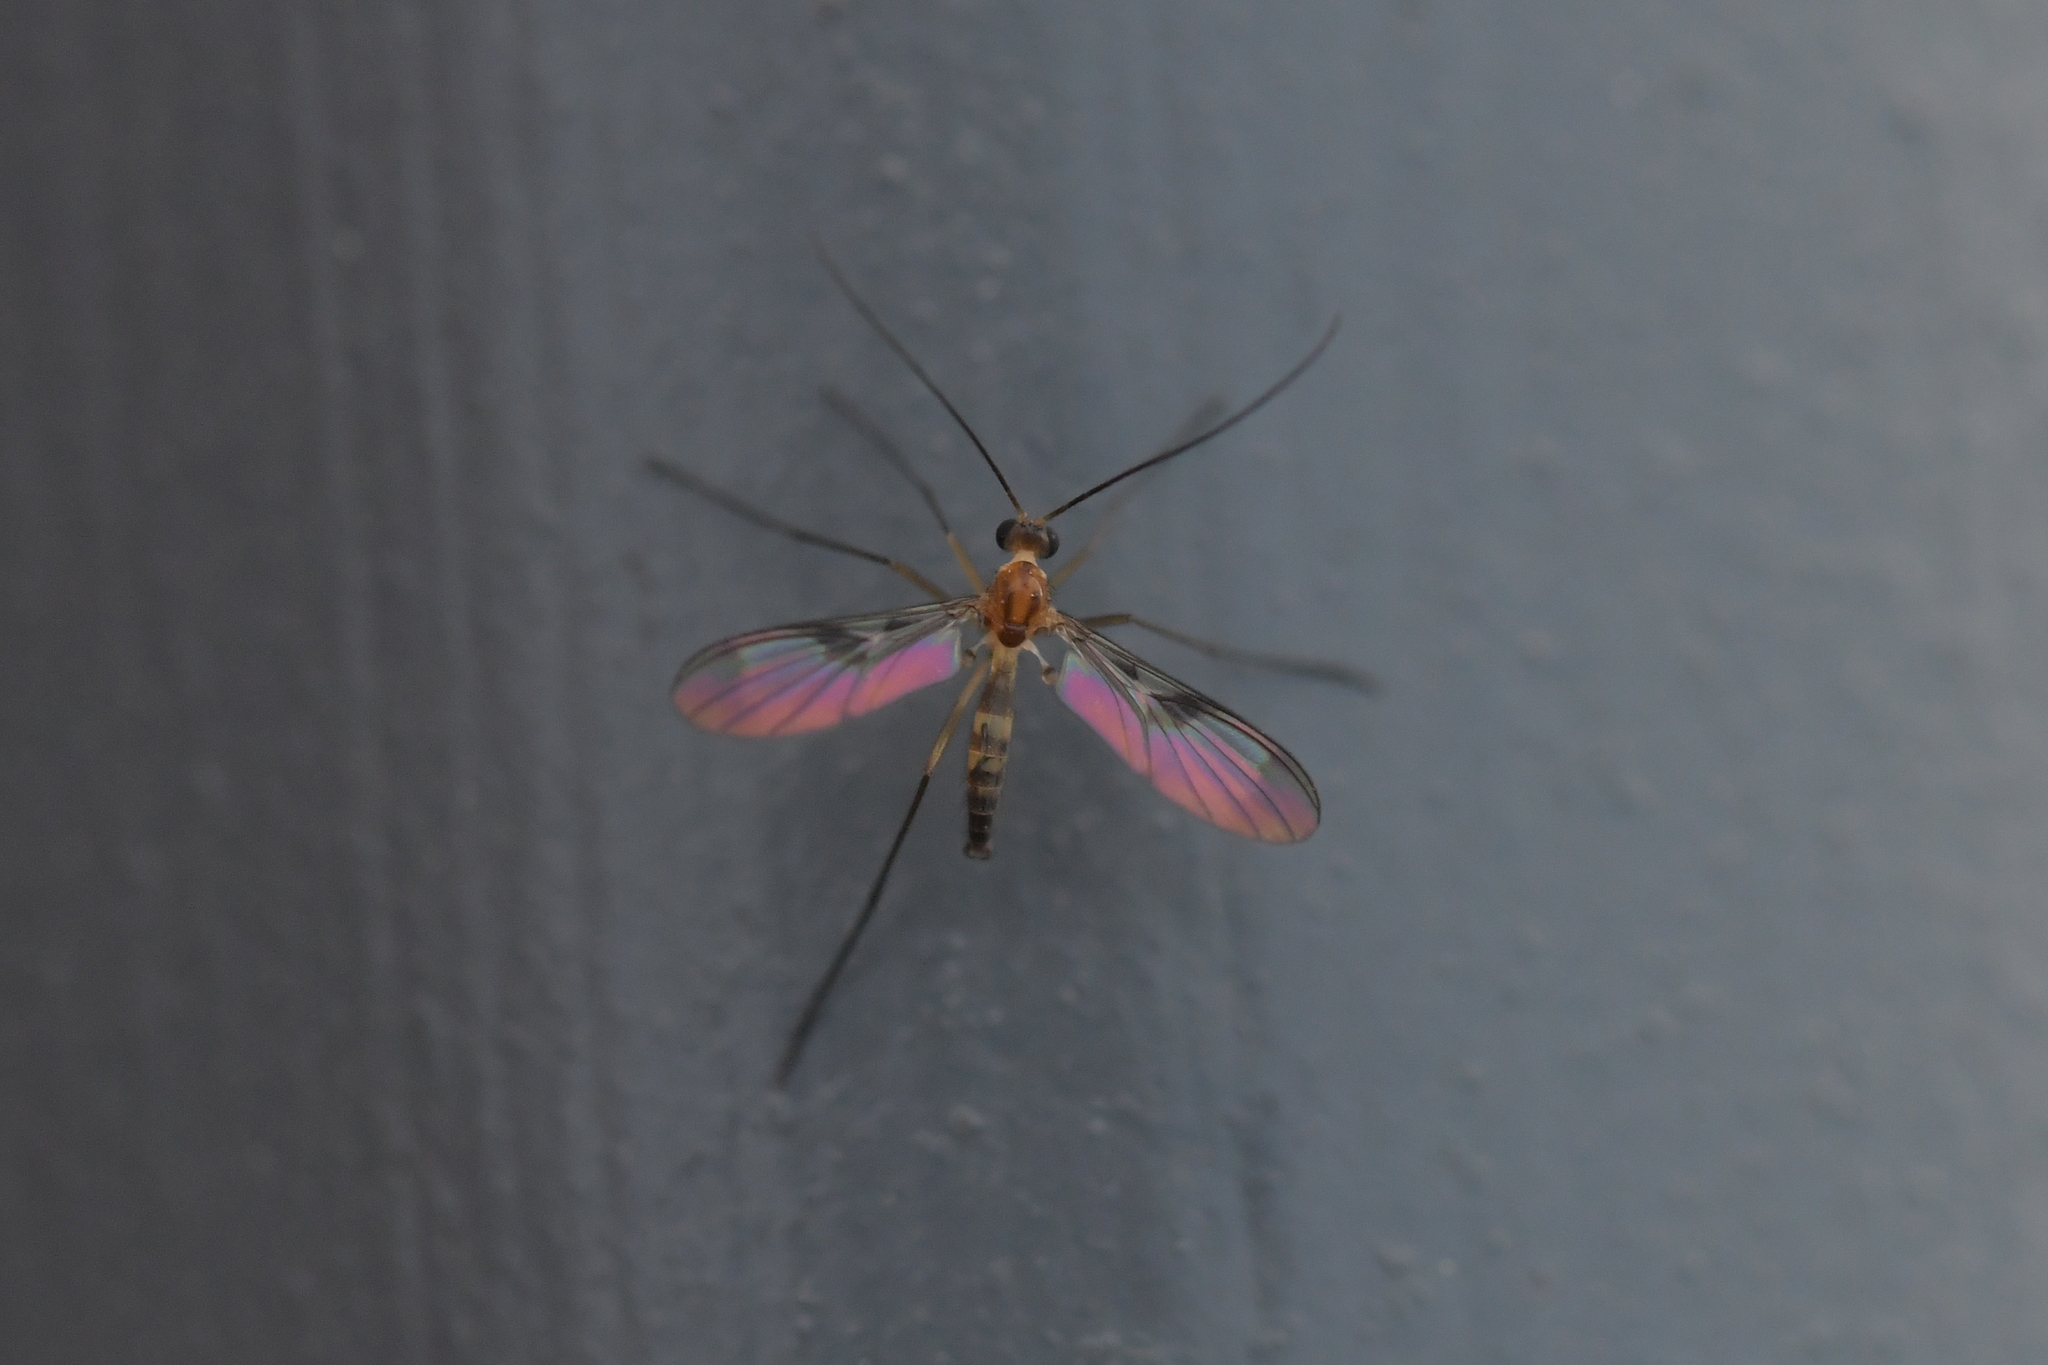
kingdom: Animalia
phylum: Arthropoda
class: Insecta
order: Diptera
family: Keroplatidae
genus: Macrocera
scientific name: Macrocera scoparia
